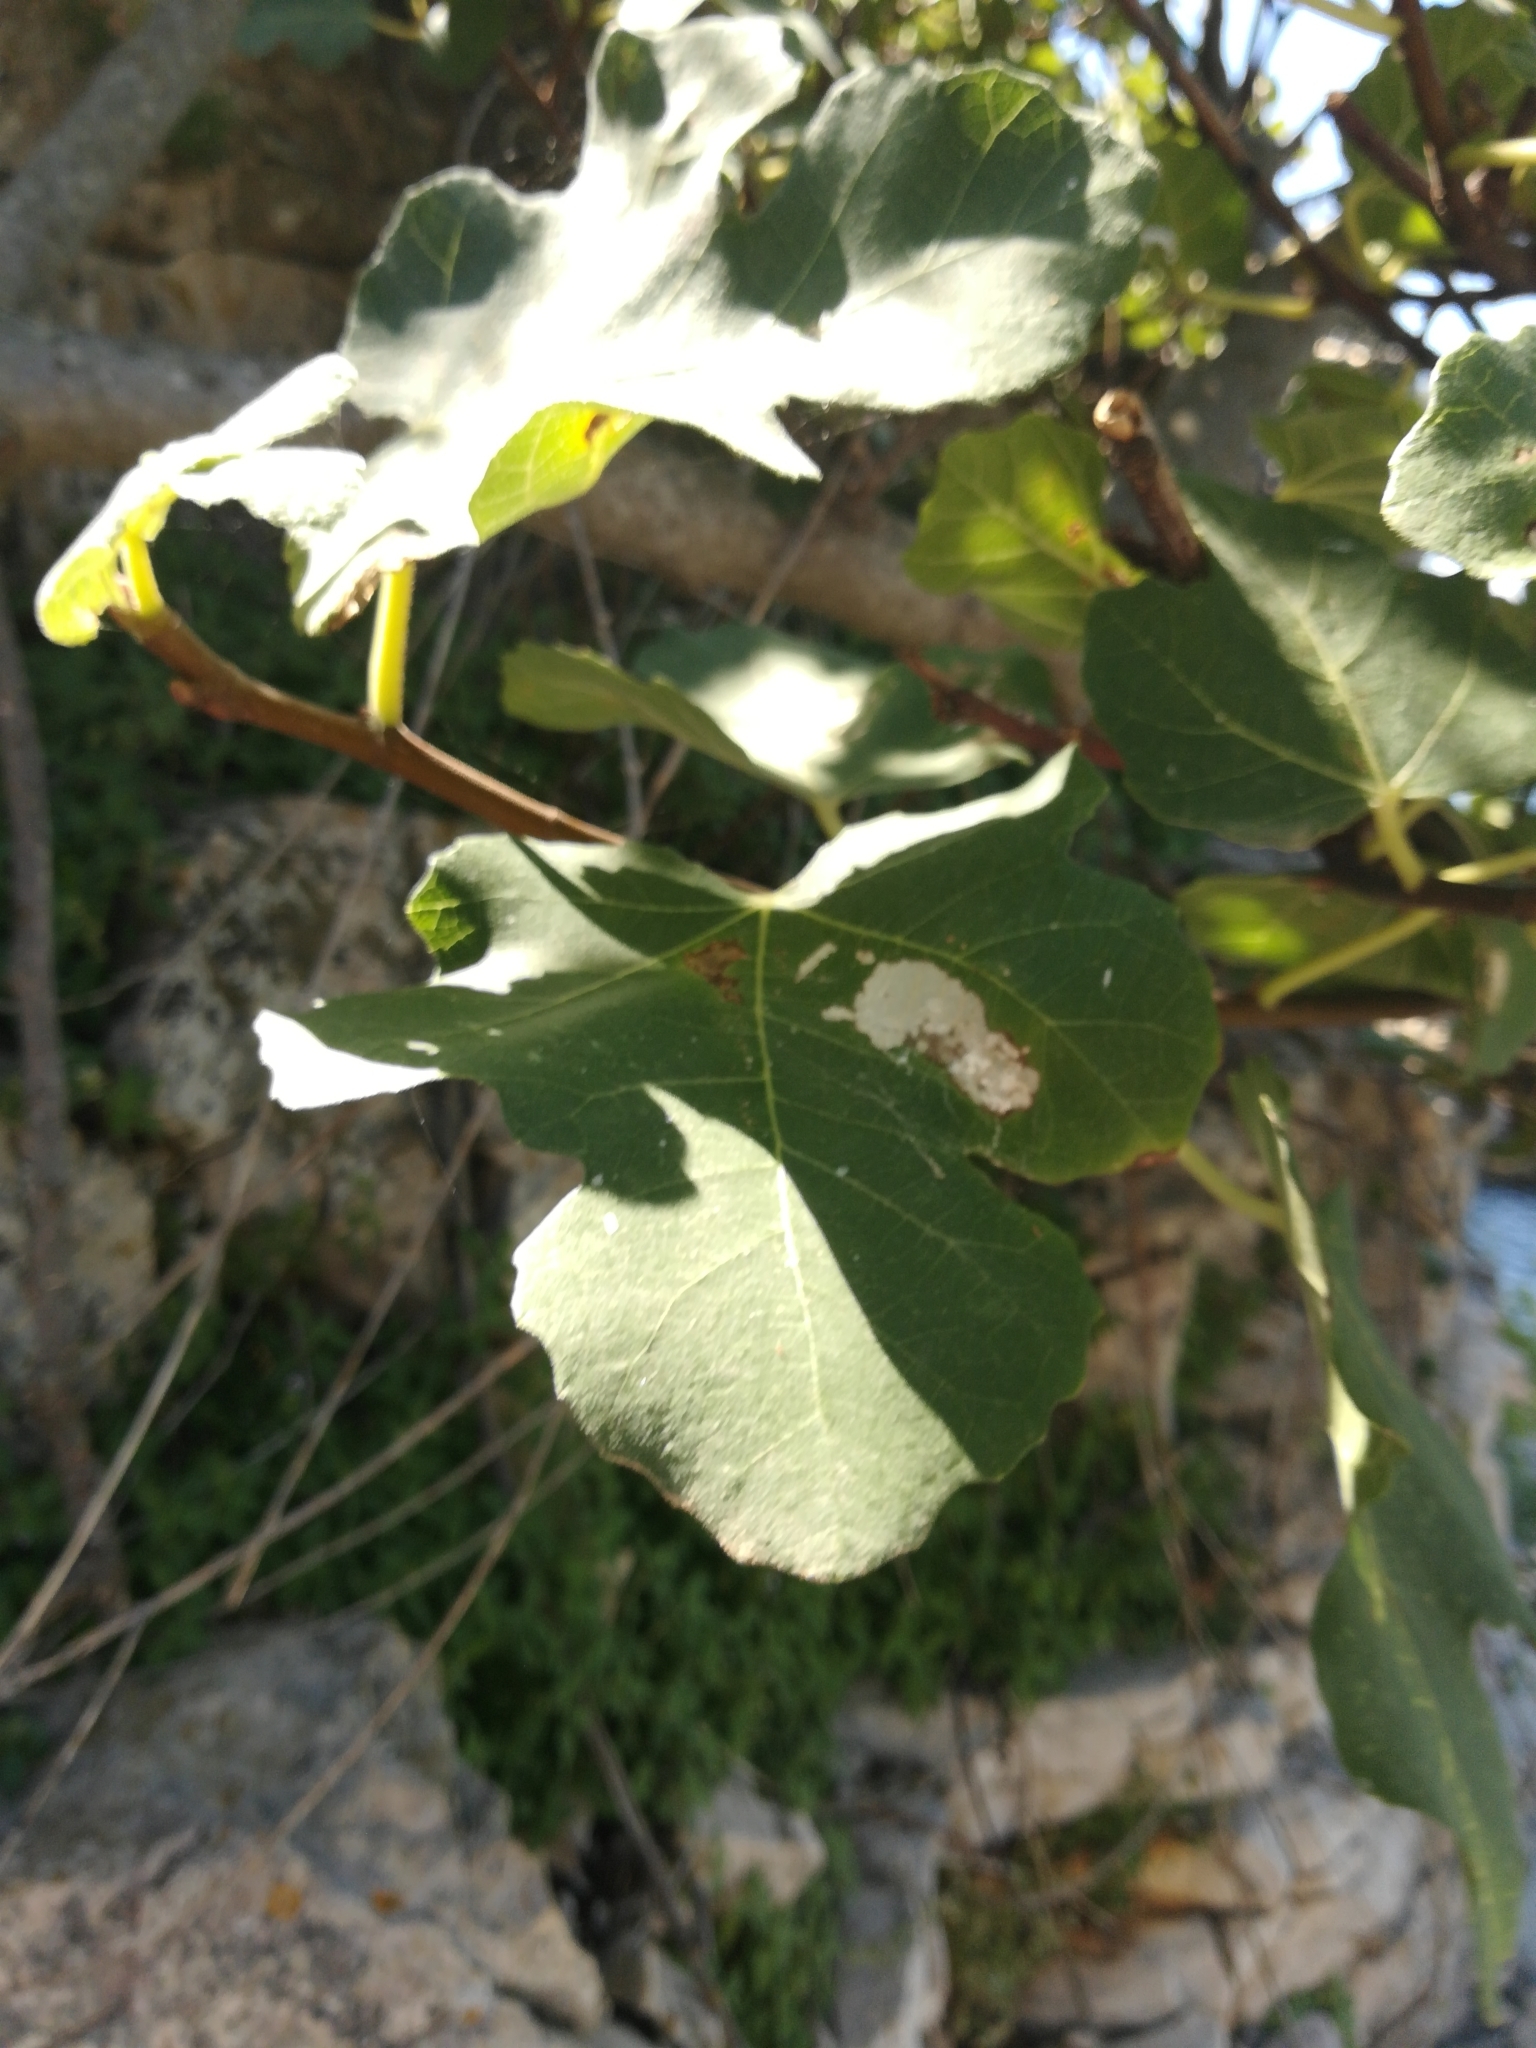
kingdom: Plantae
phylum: Tracheophyta
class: Magnoliopsida
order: Rosales
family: Moraceae
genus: Ficus
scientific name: Ficus carica
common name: Fig
